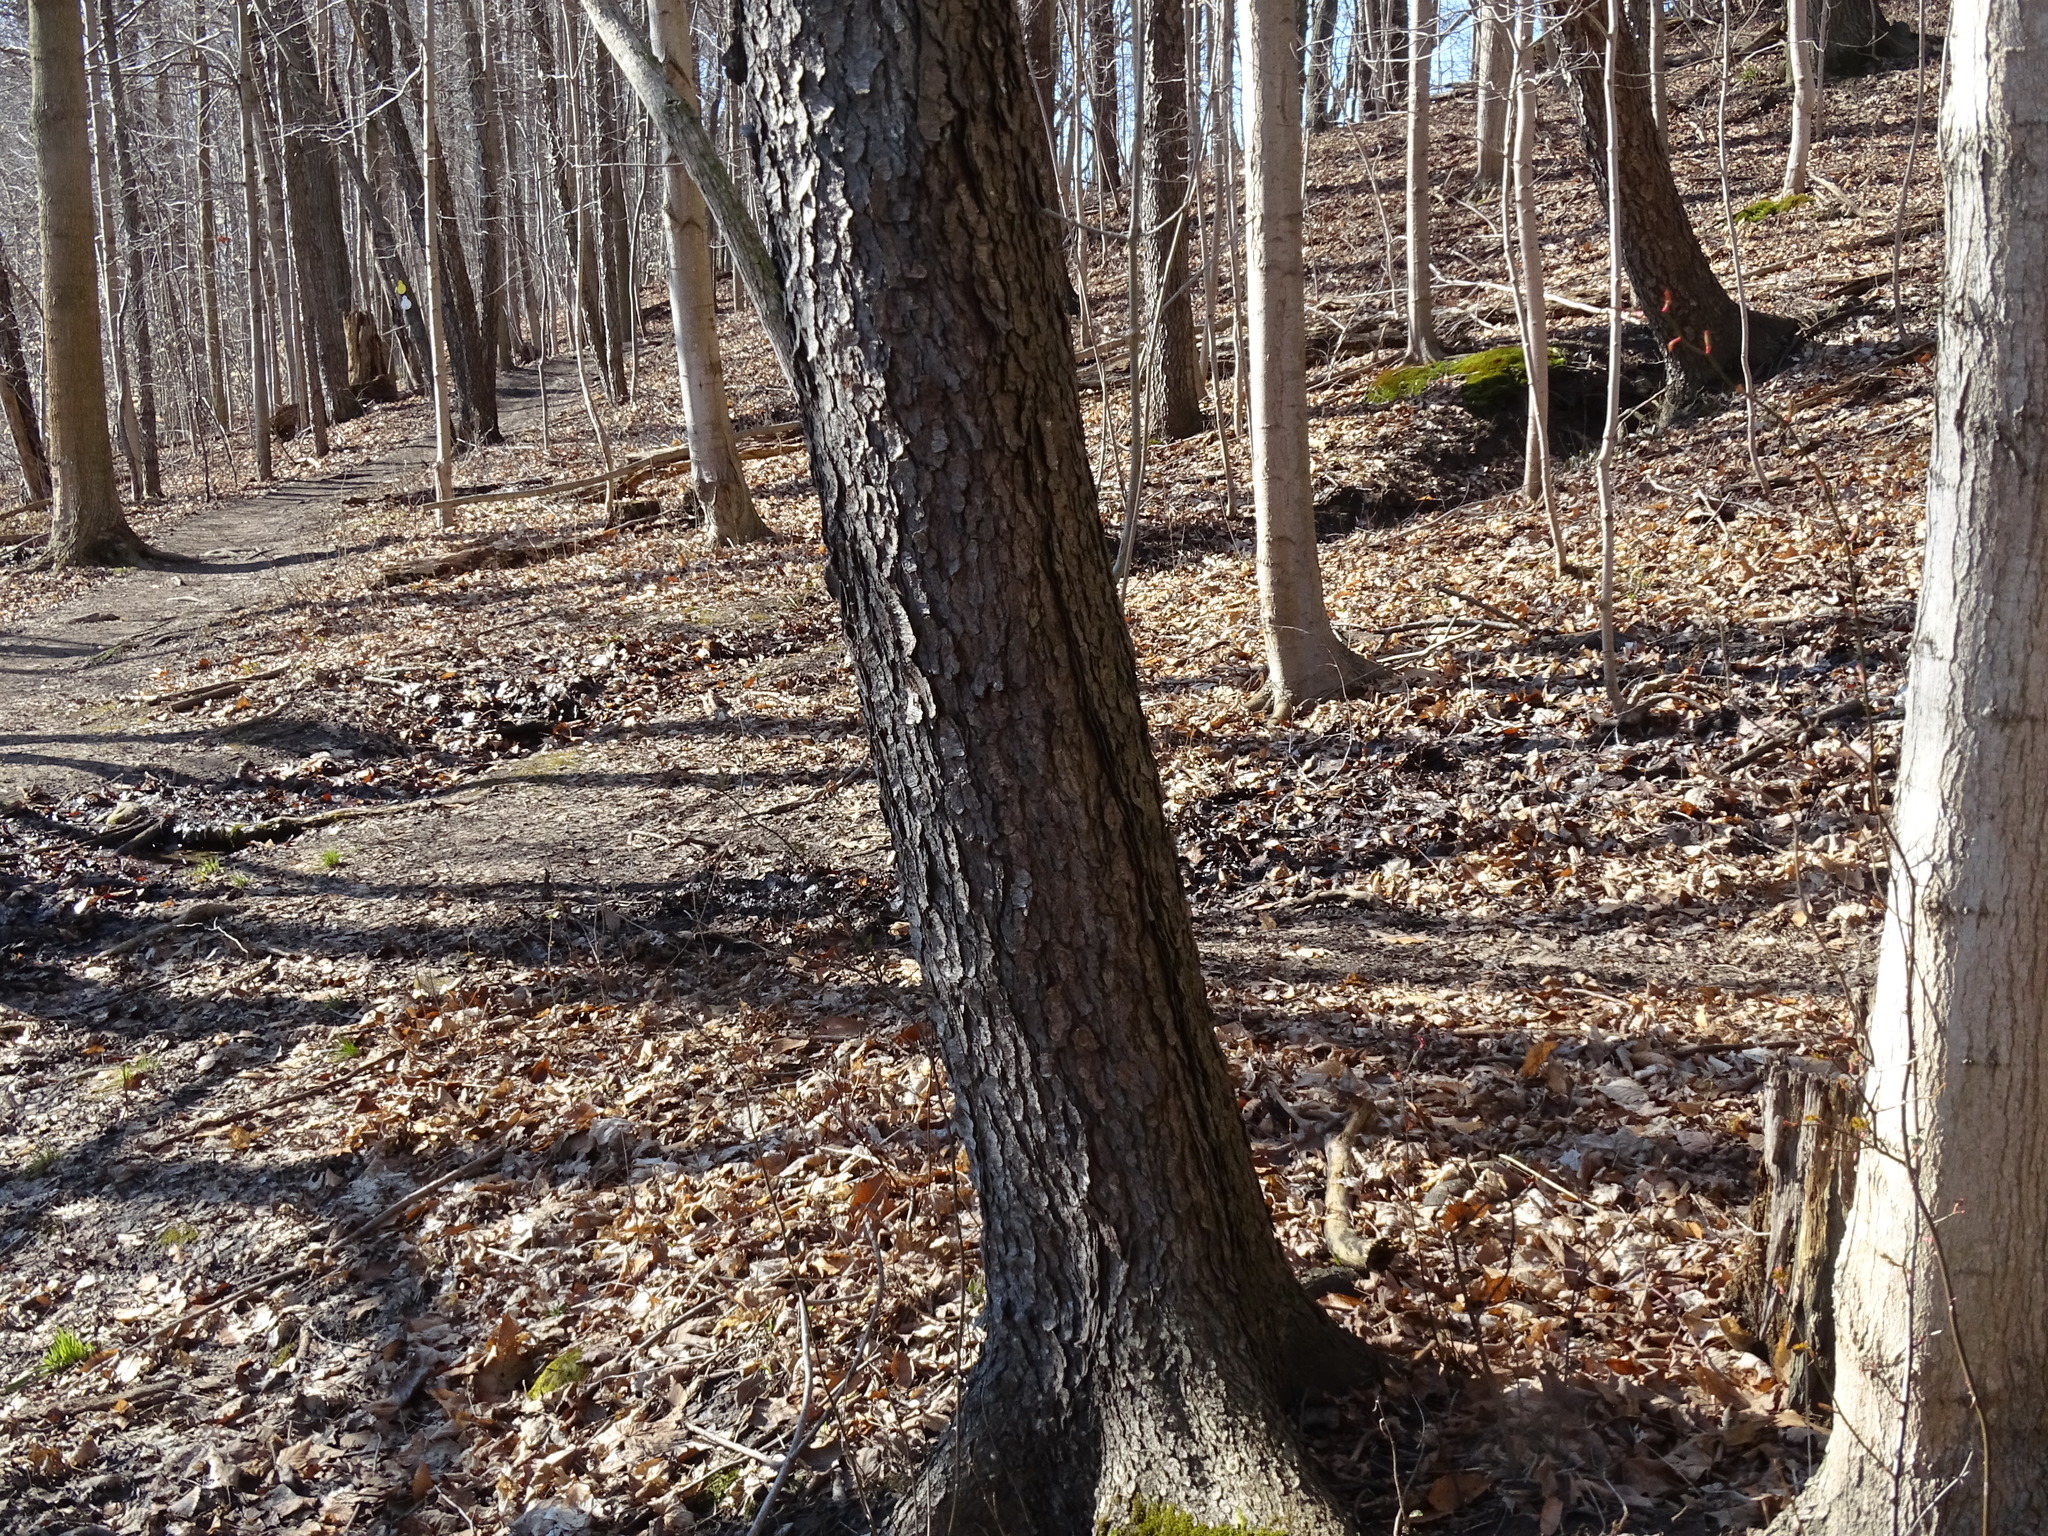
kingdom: Plantae
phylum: Tracheophyta
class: Magnoliopsida
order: Rosales
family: Rosaceae
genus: Prunus
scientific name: Prunus serotina
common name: Black cherry
